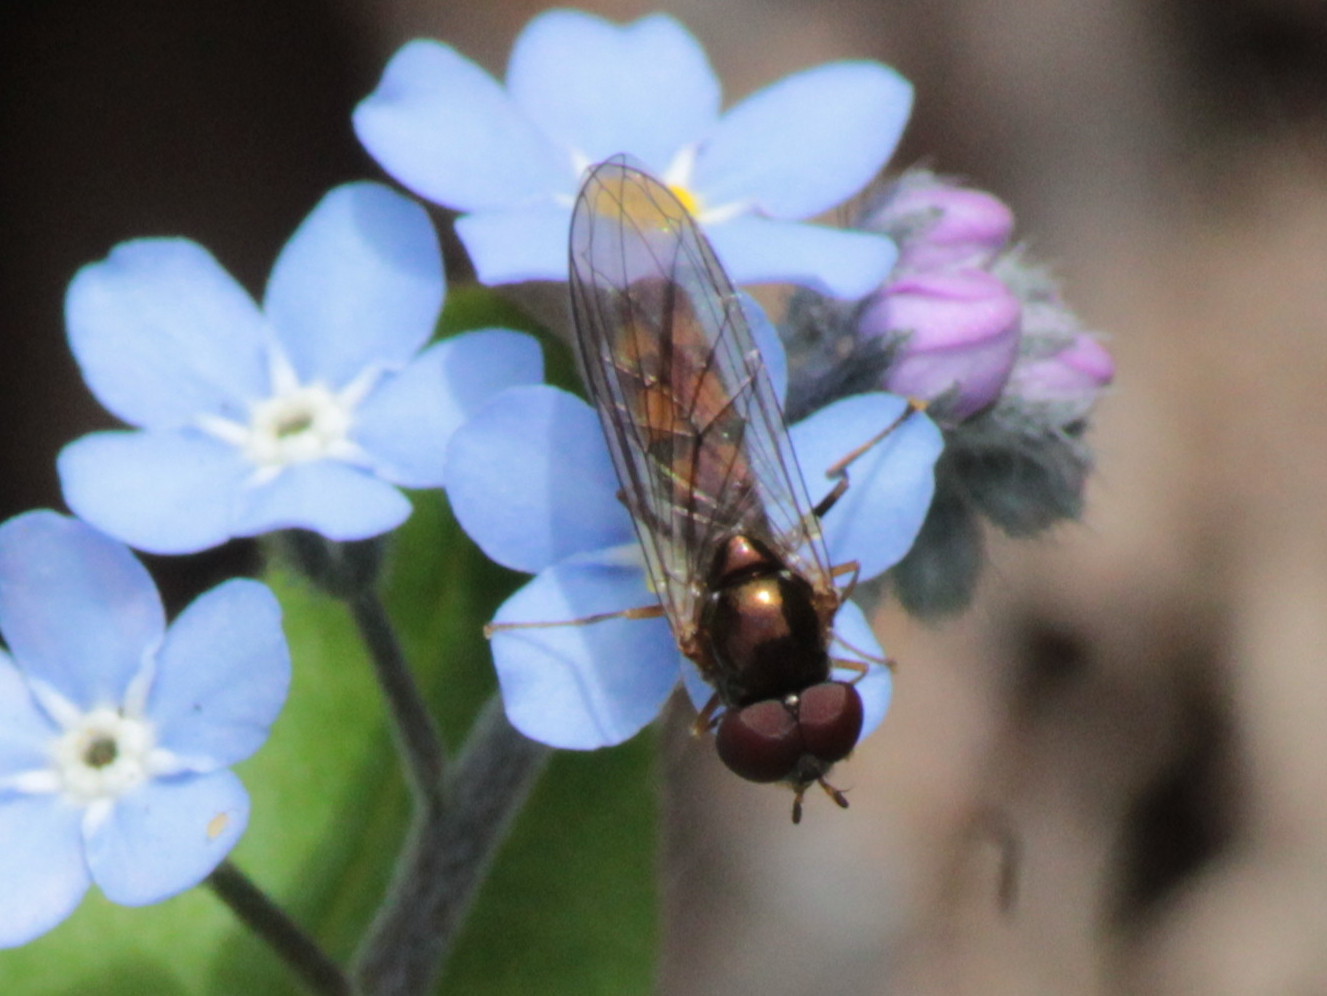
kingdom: Animalia
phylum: Arthropoda
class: Insecta
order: Diptera
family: Syrphidae
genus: Melanostoma
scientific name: Melanostoma mellina
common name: Hover fly
